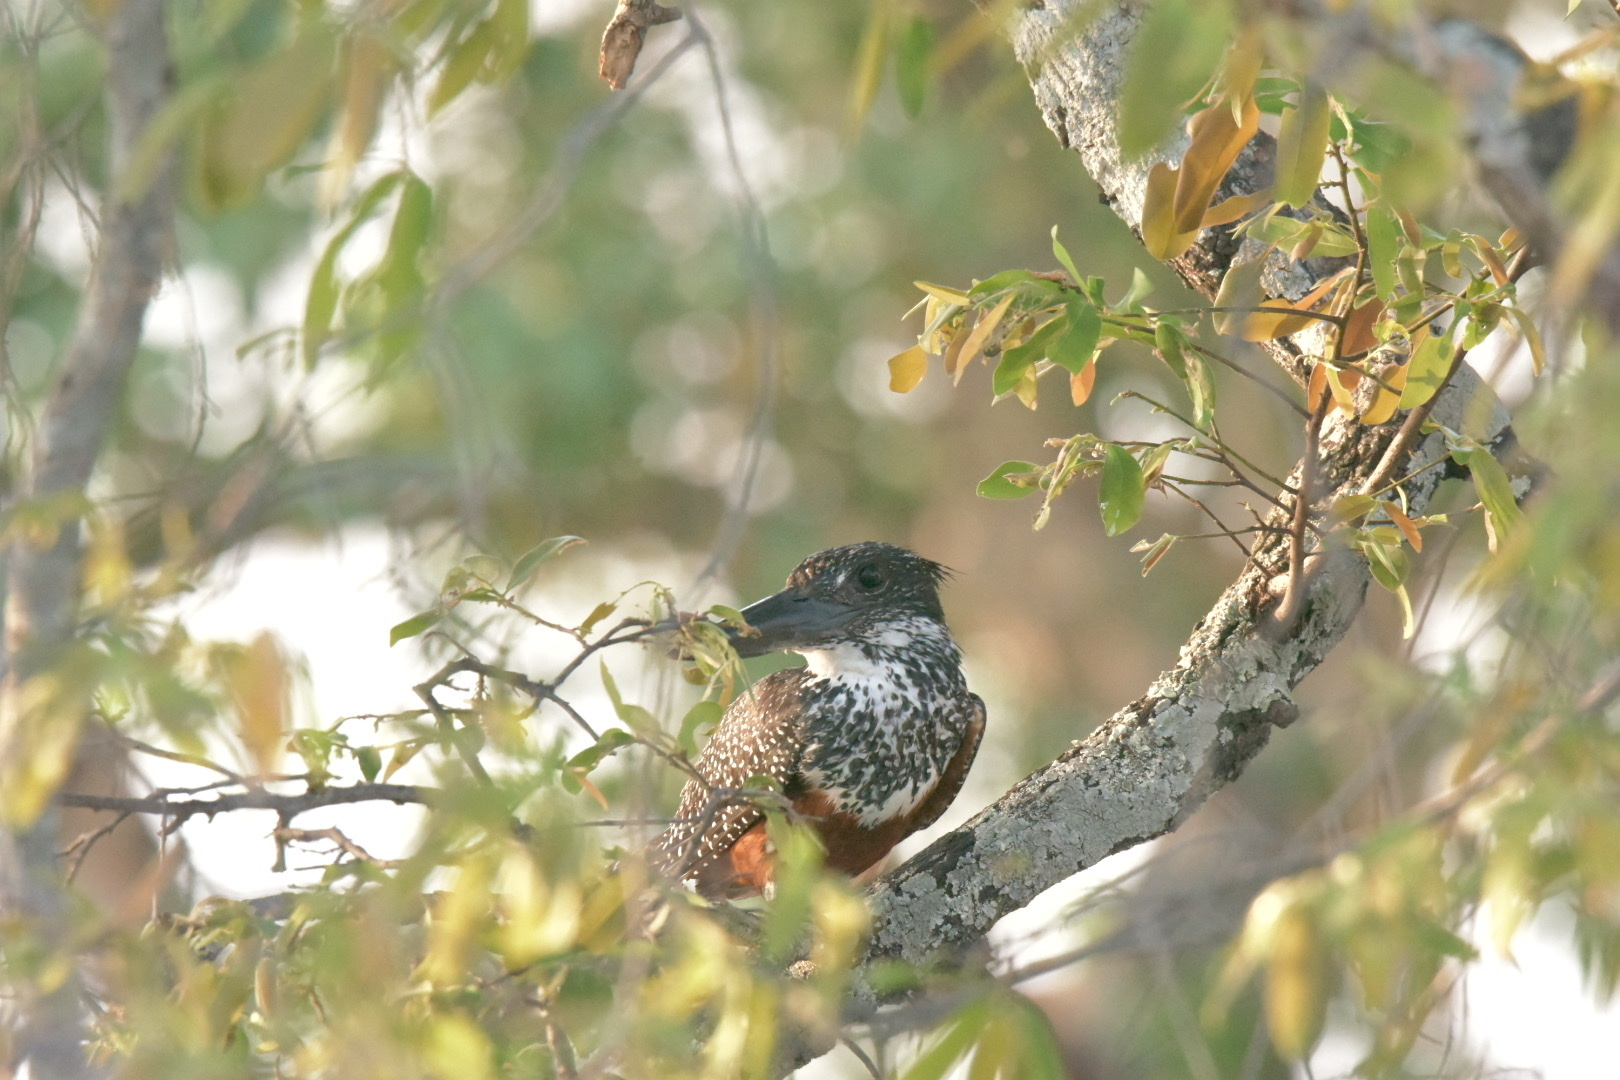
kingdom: Animalia
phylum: Chordata
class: Aves
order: Coraciiformes
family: Alcedinidae
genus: Megaceryle
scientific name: Megaceryle maxima
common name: Giant kingfisher
